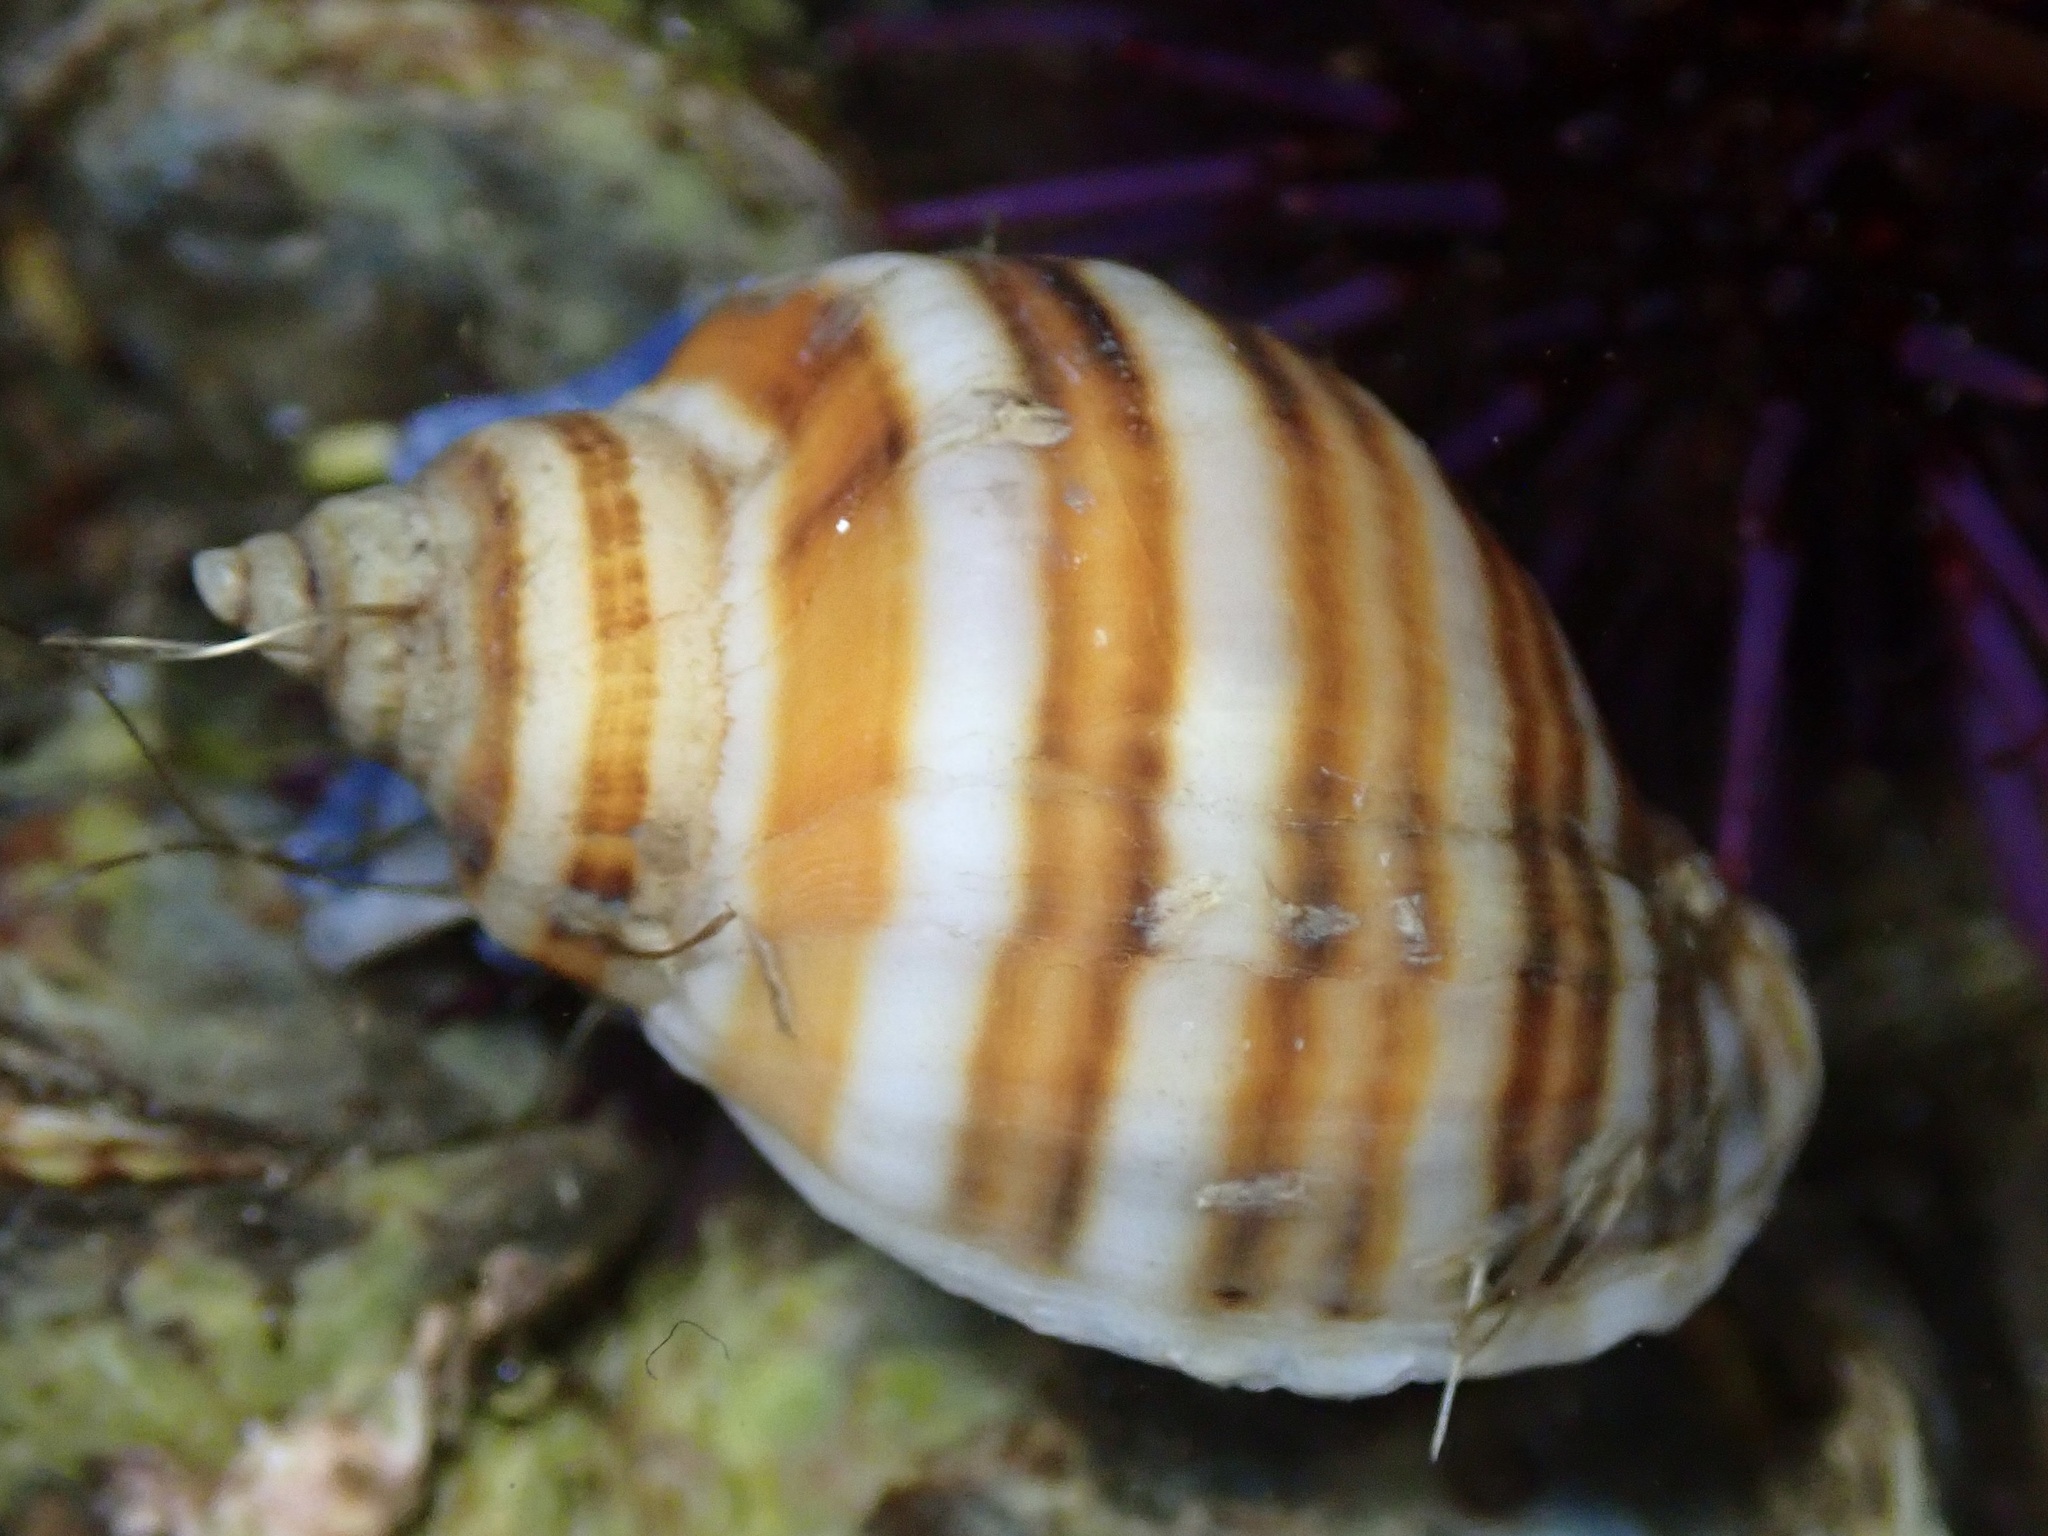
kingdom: Animalia
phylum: Mollusca
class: Gastropoda
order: Neogastropoda
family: Muricidae
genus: Nucella
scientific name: Nucella emarginata
